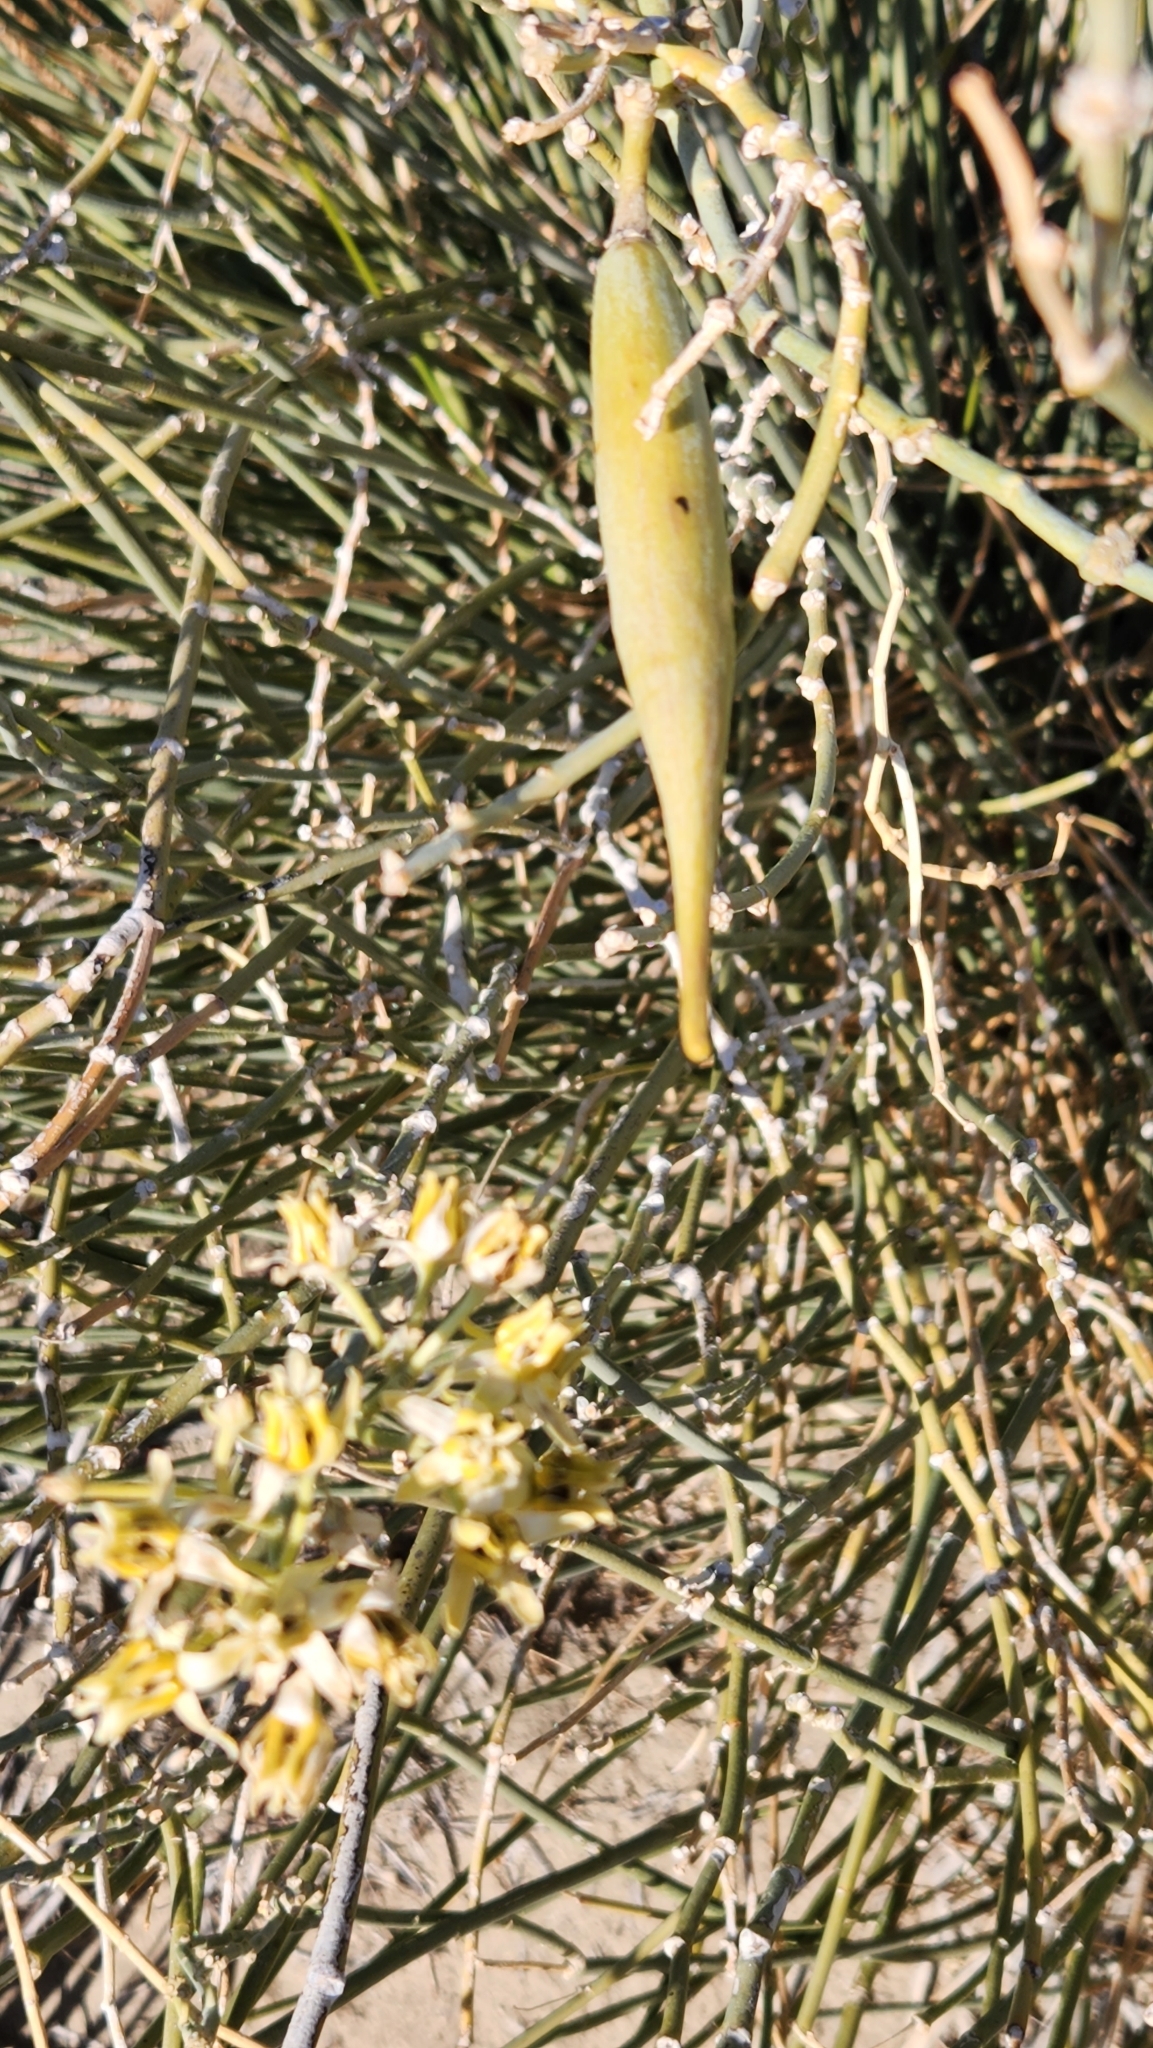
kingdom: Plantae
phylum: Tracheophyta
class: Magnoliopsida
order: Gentianales
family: Apocynaceae
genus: Asclepias
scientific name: Asclepias subulata
